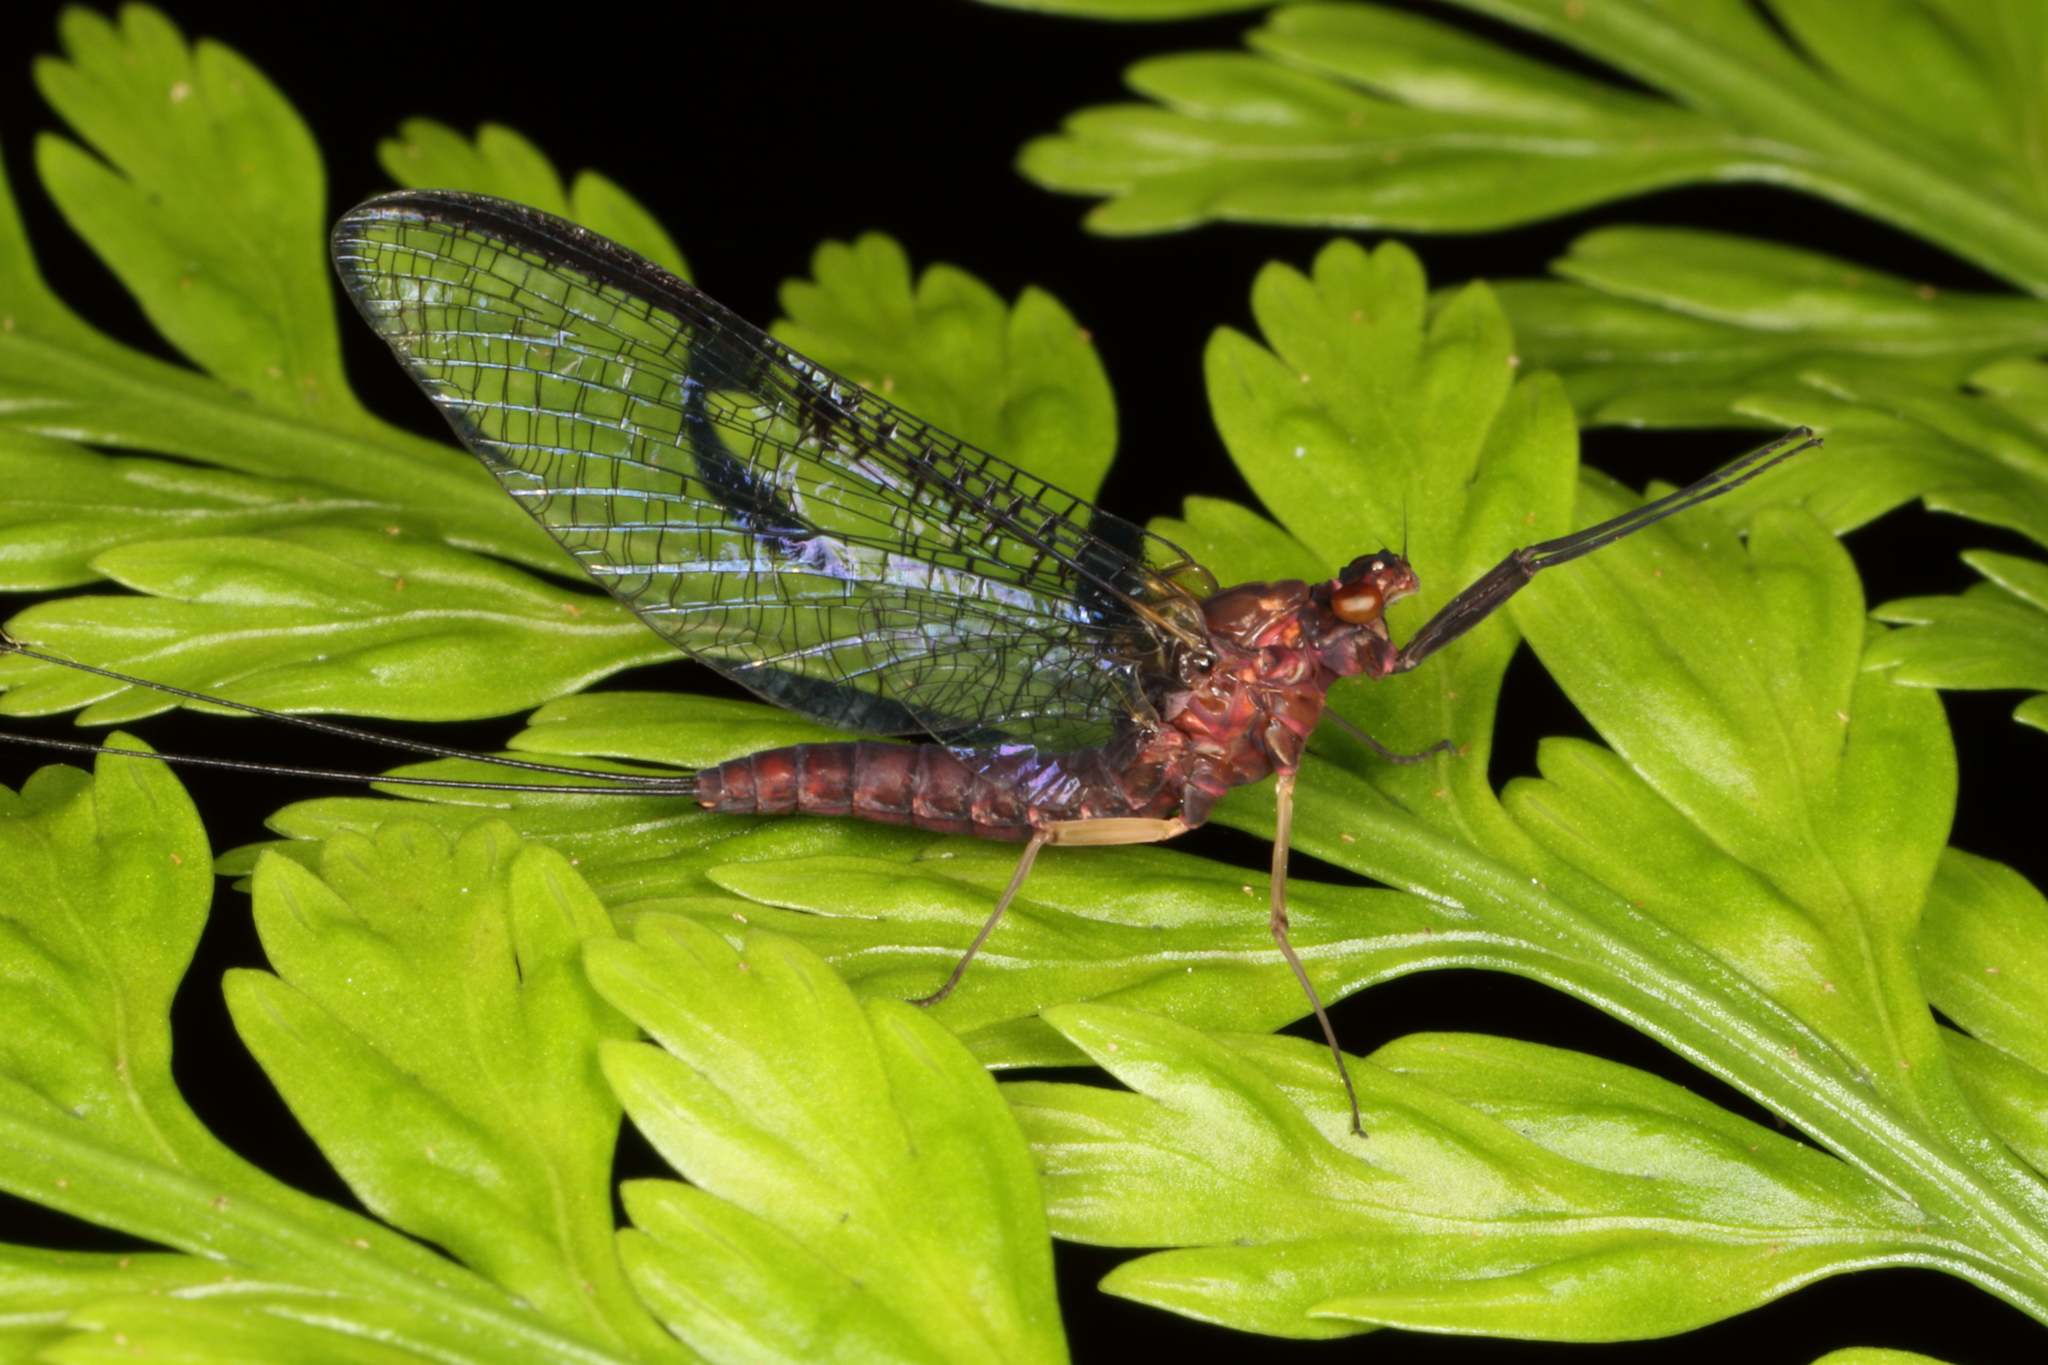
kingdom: Animalia
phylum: Arthropoda
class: Insecta
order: Ephemeroptera
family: Coloburiscidae
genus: Coloburiscus
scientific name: Coloburiscus humeralis
